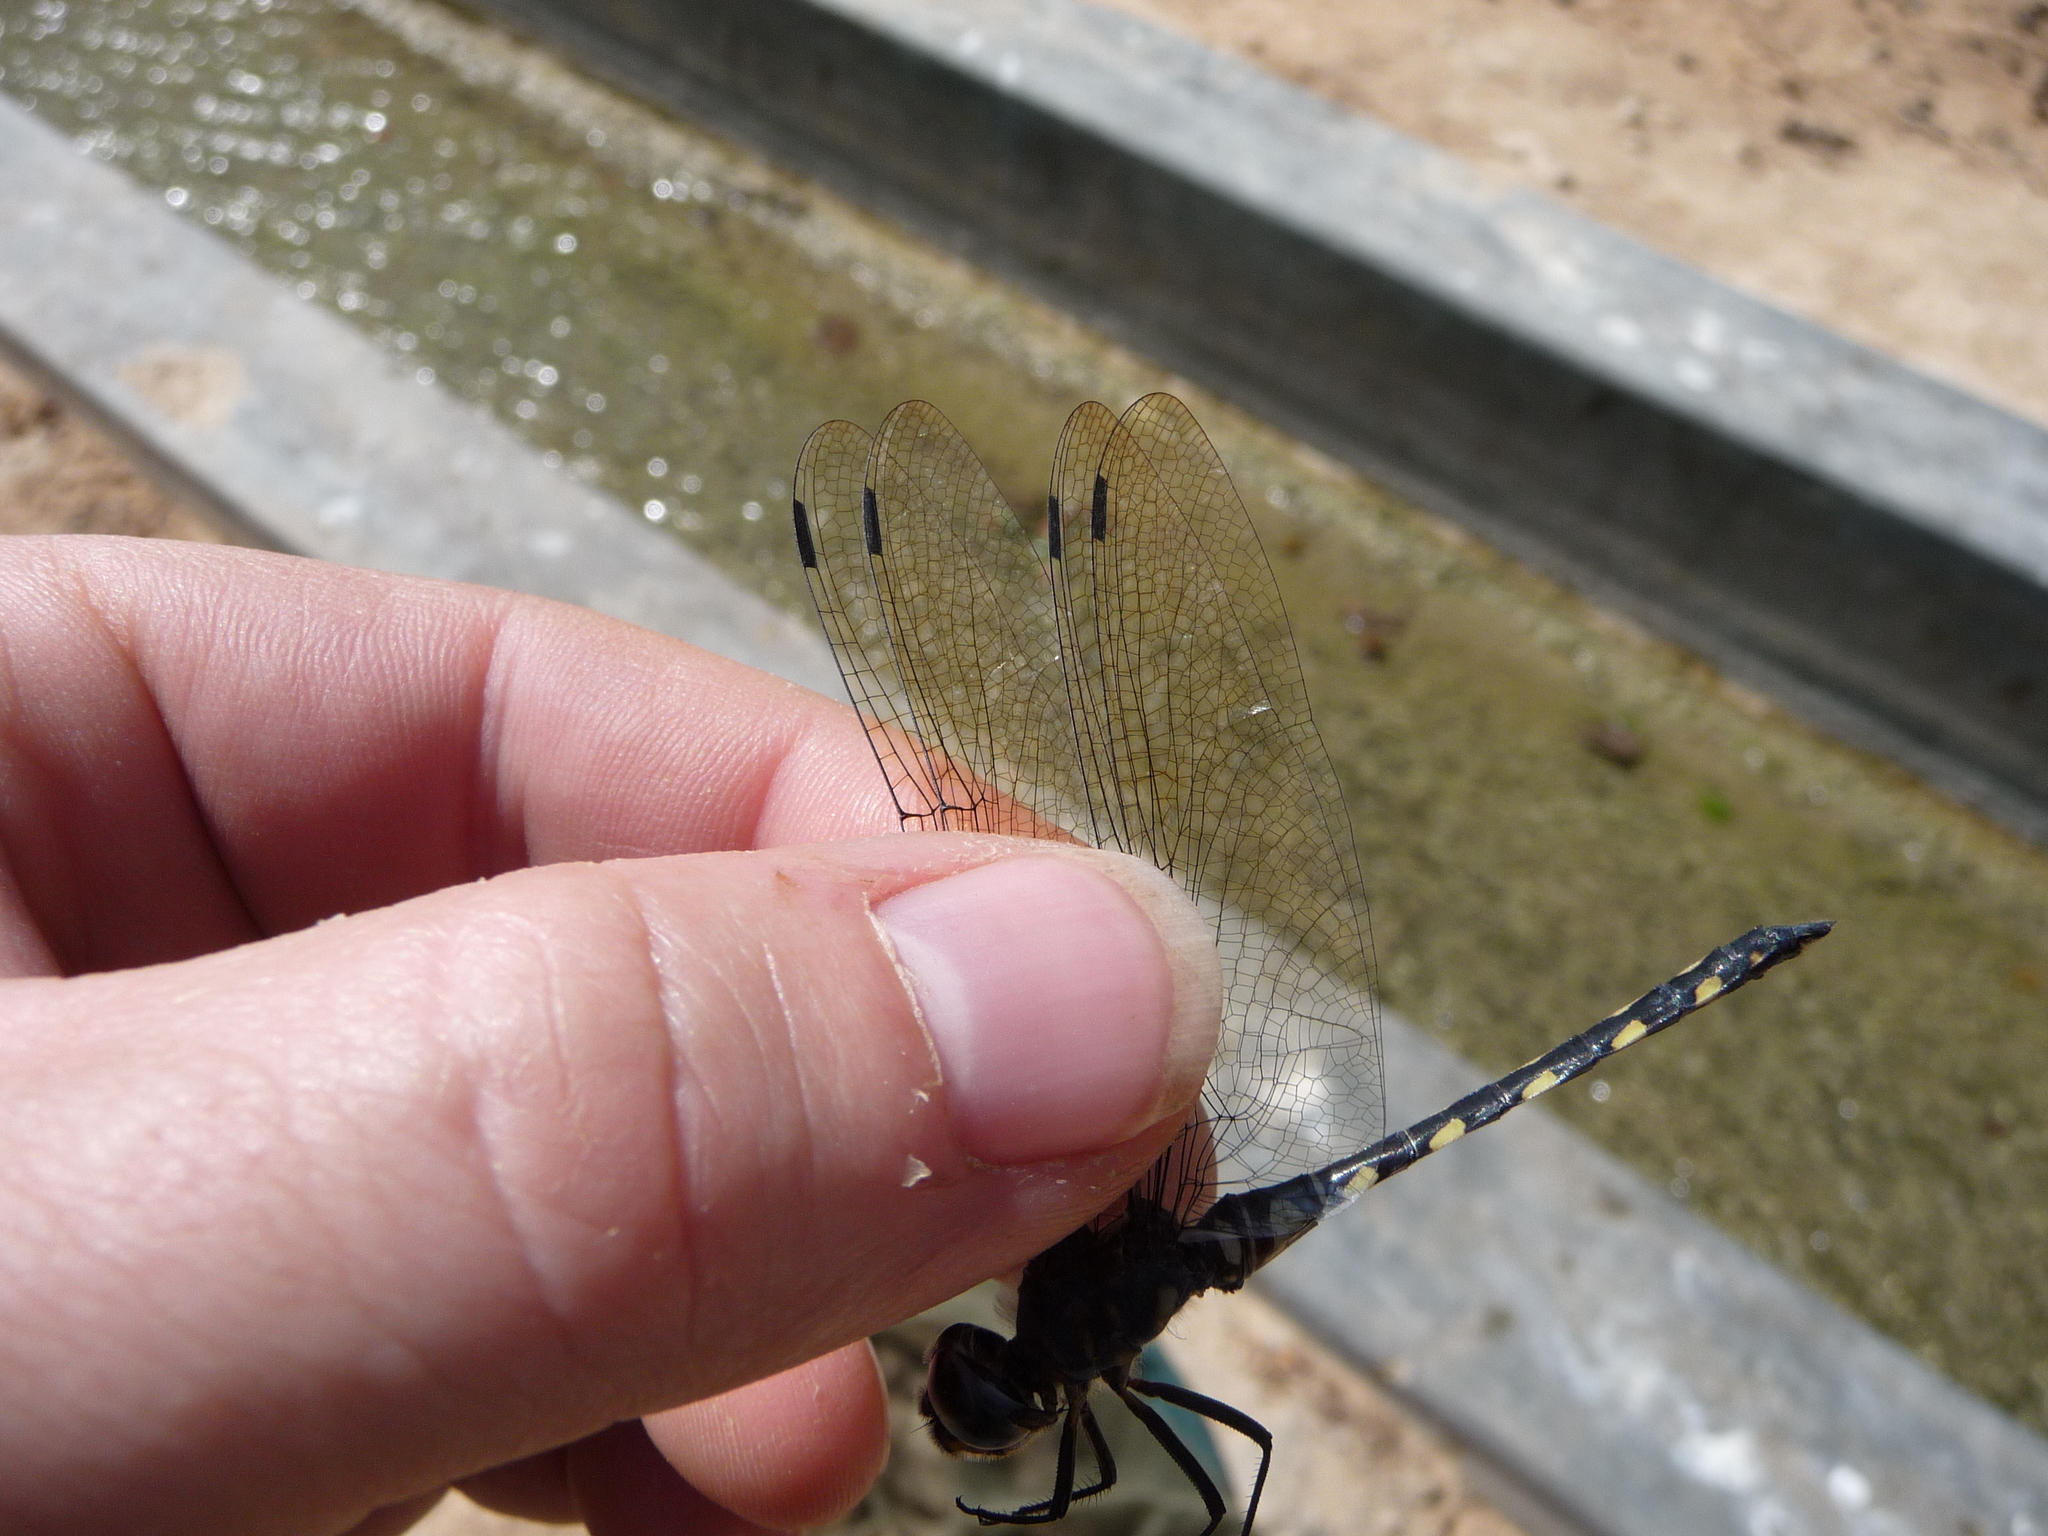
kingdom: Animalia
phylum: Arthropoda
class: Insecta
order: Odonata
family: Libellulidae
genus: Zygonyx
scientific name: Zygonyx torridus
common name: Ringed cascader
